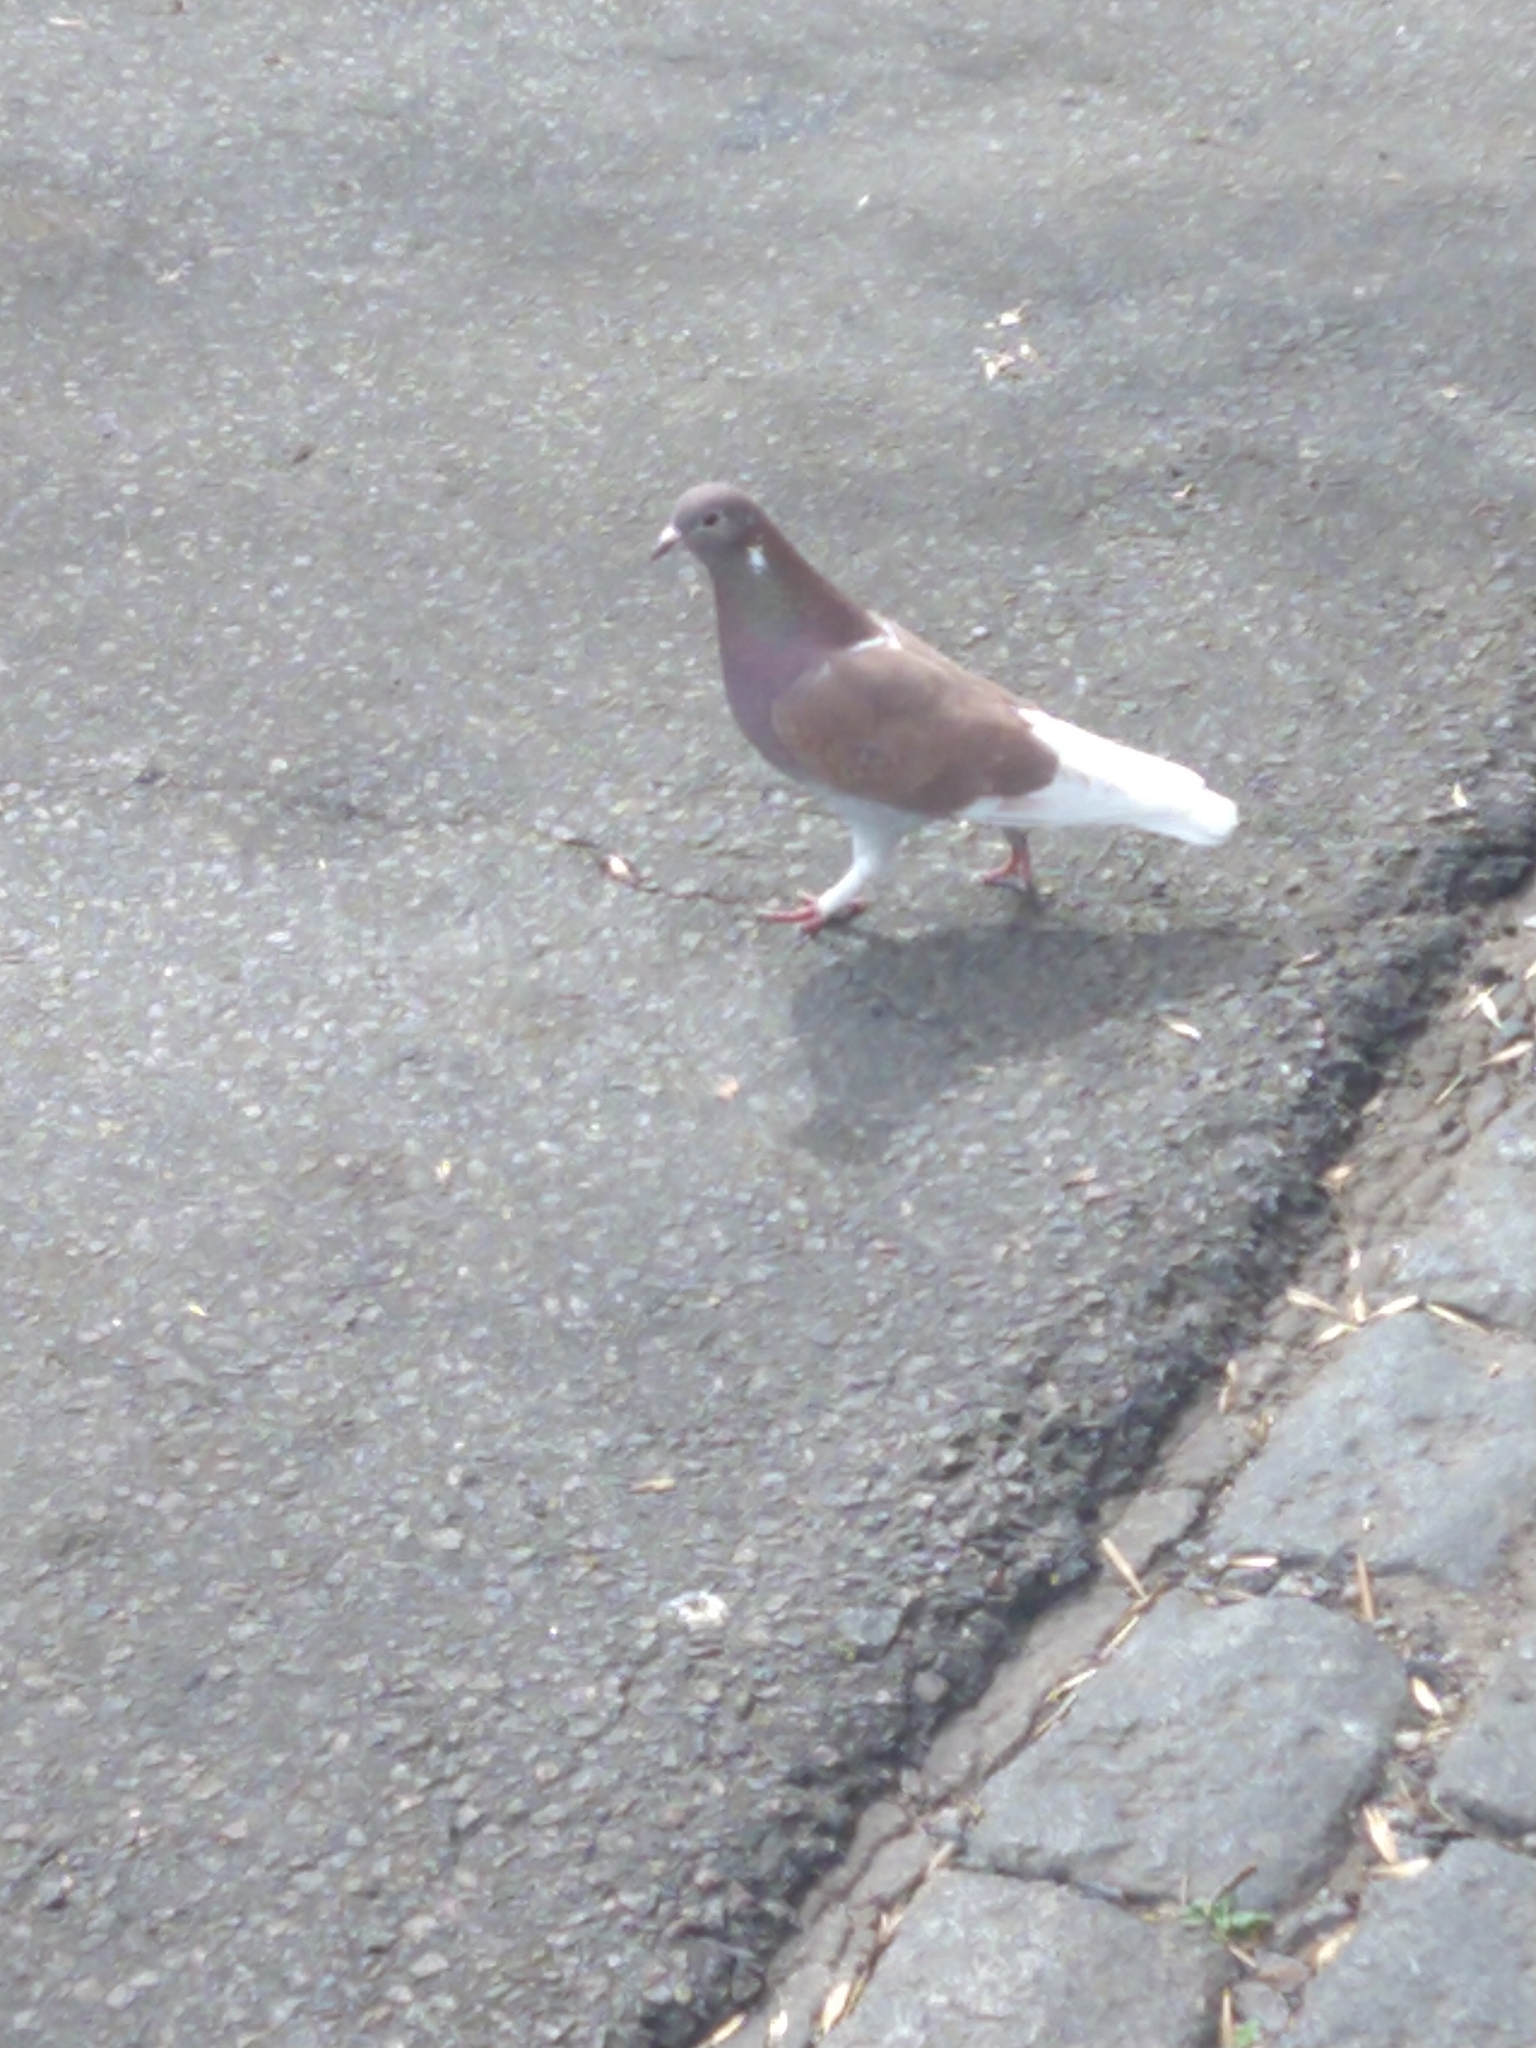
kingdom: Animalia
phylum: Chordata
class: Aves
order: Columbiformes
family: Columbidae
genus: Columba
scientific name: Columba livia
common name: Rock pigeon
